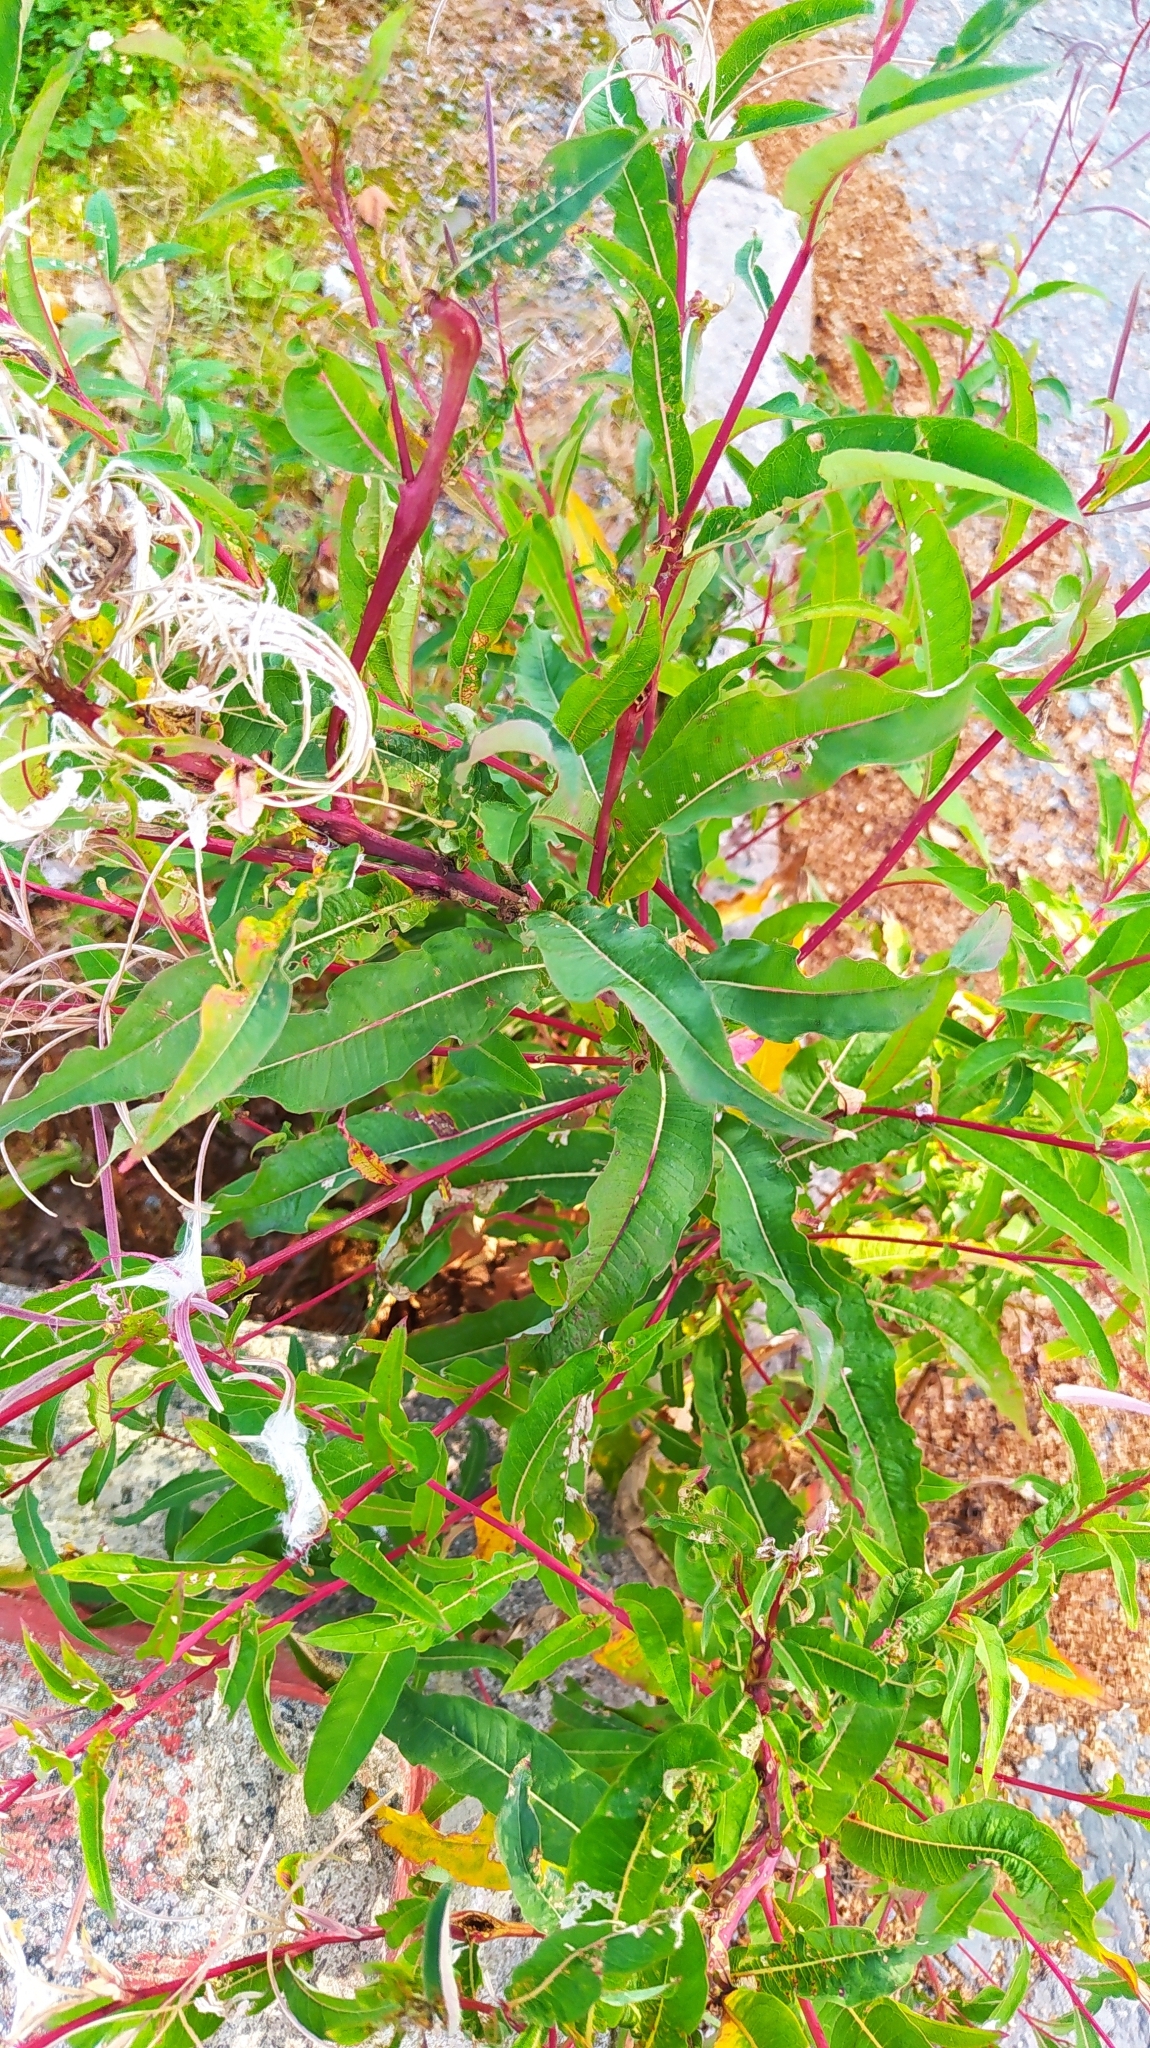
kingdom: Plantae
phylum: Tracheophyta
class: Magnoliopsida
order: Myrtales
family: Onagraceae
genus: Chamaenerion
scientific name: Chamaenerion angustifolium
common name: Fireweed
